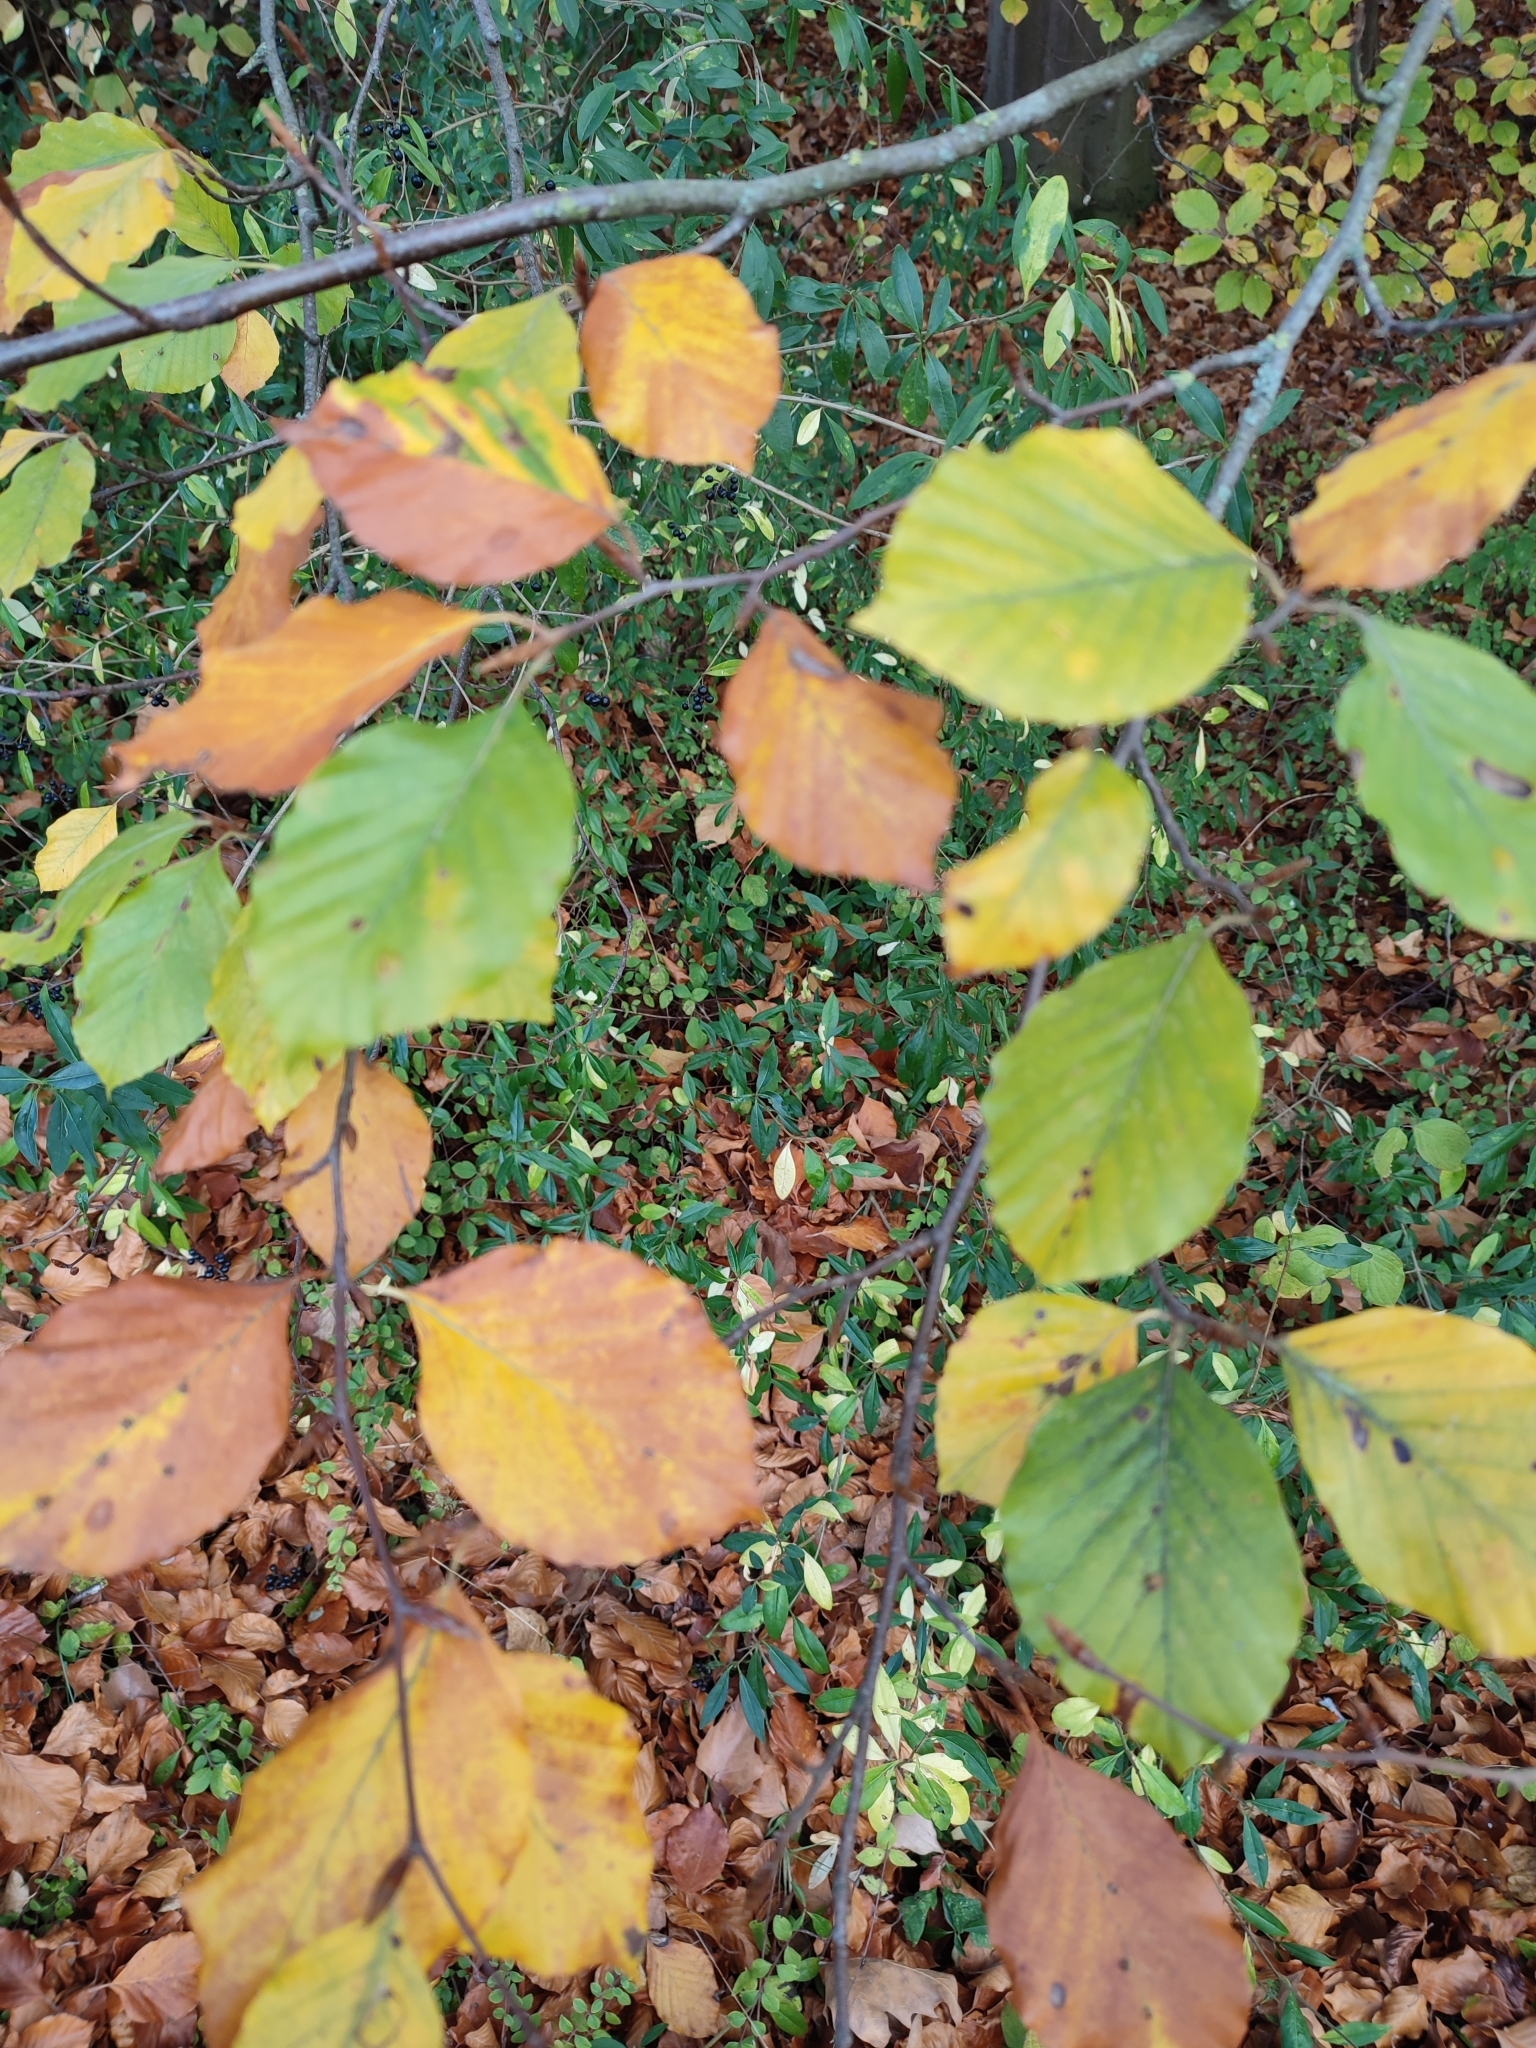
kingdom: Plantae
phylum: Tracheophyta
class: Magnoliopsida
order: Fagales
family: Fagaceae
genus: Fagus
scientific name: Fagus sylvatica
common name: Beech
